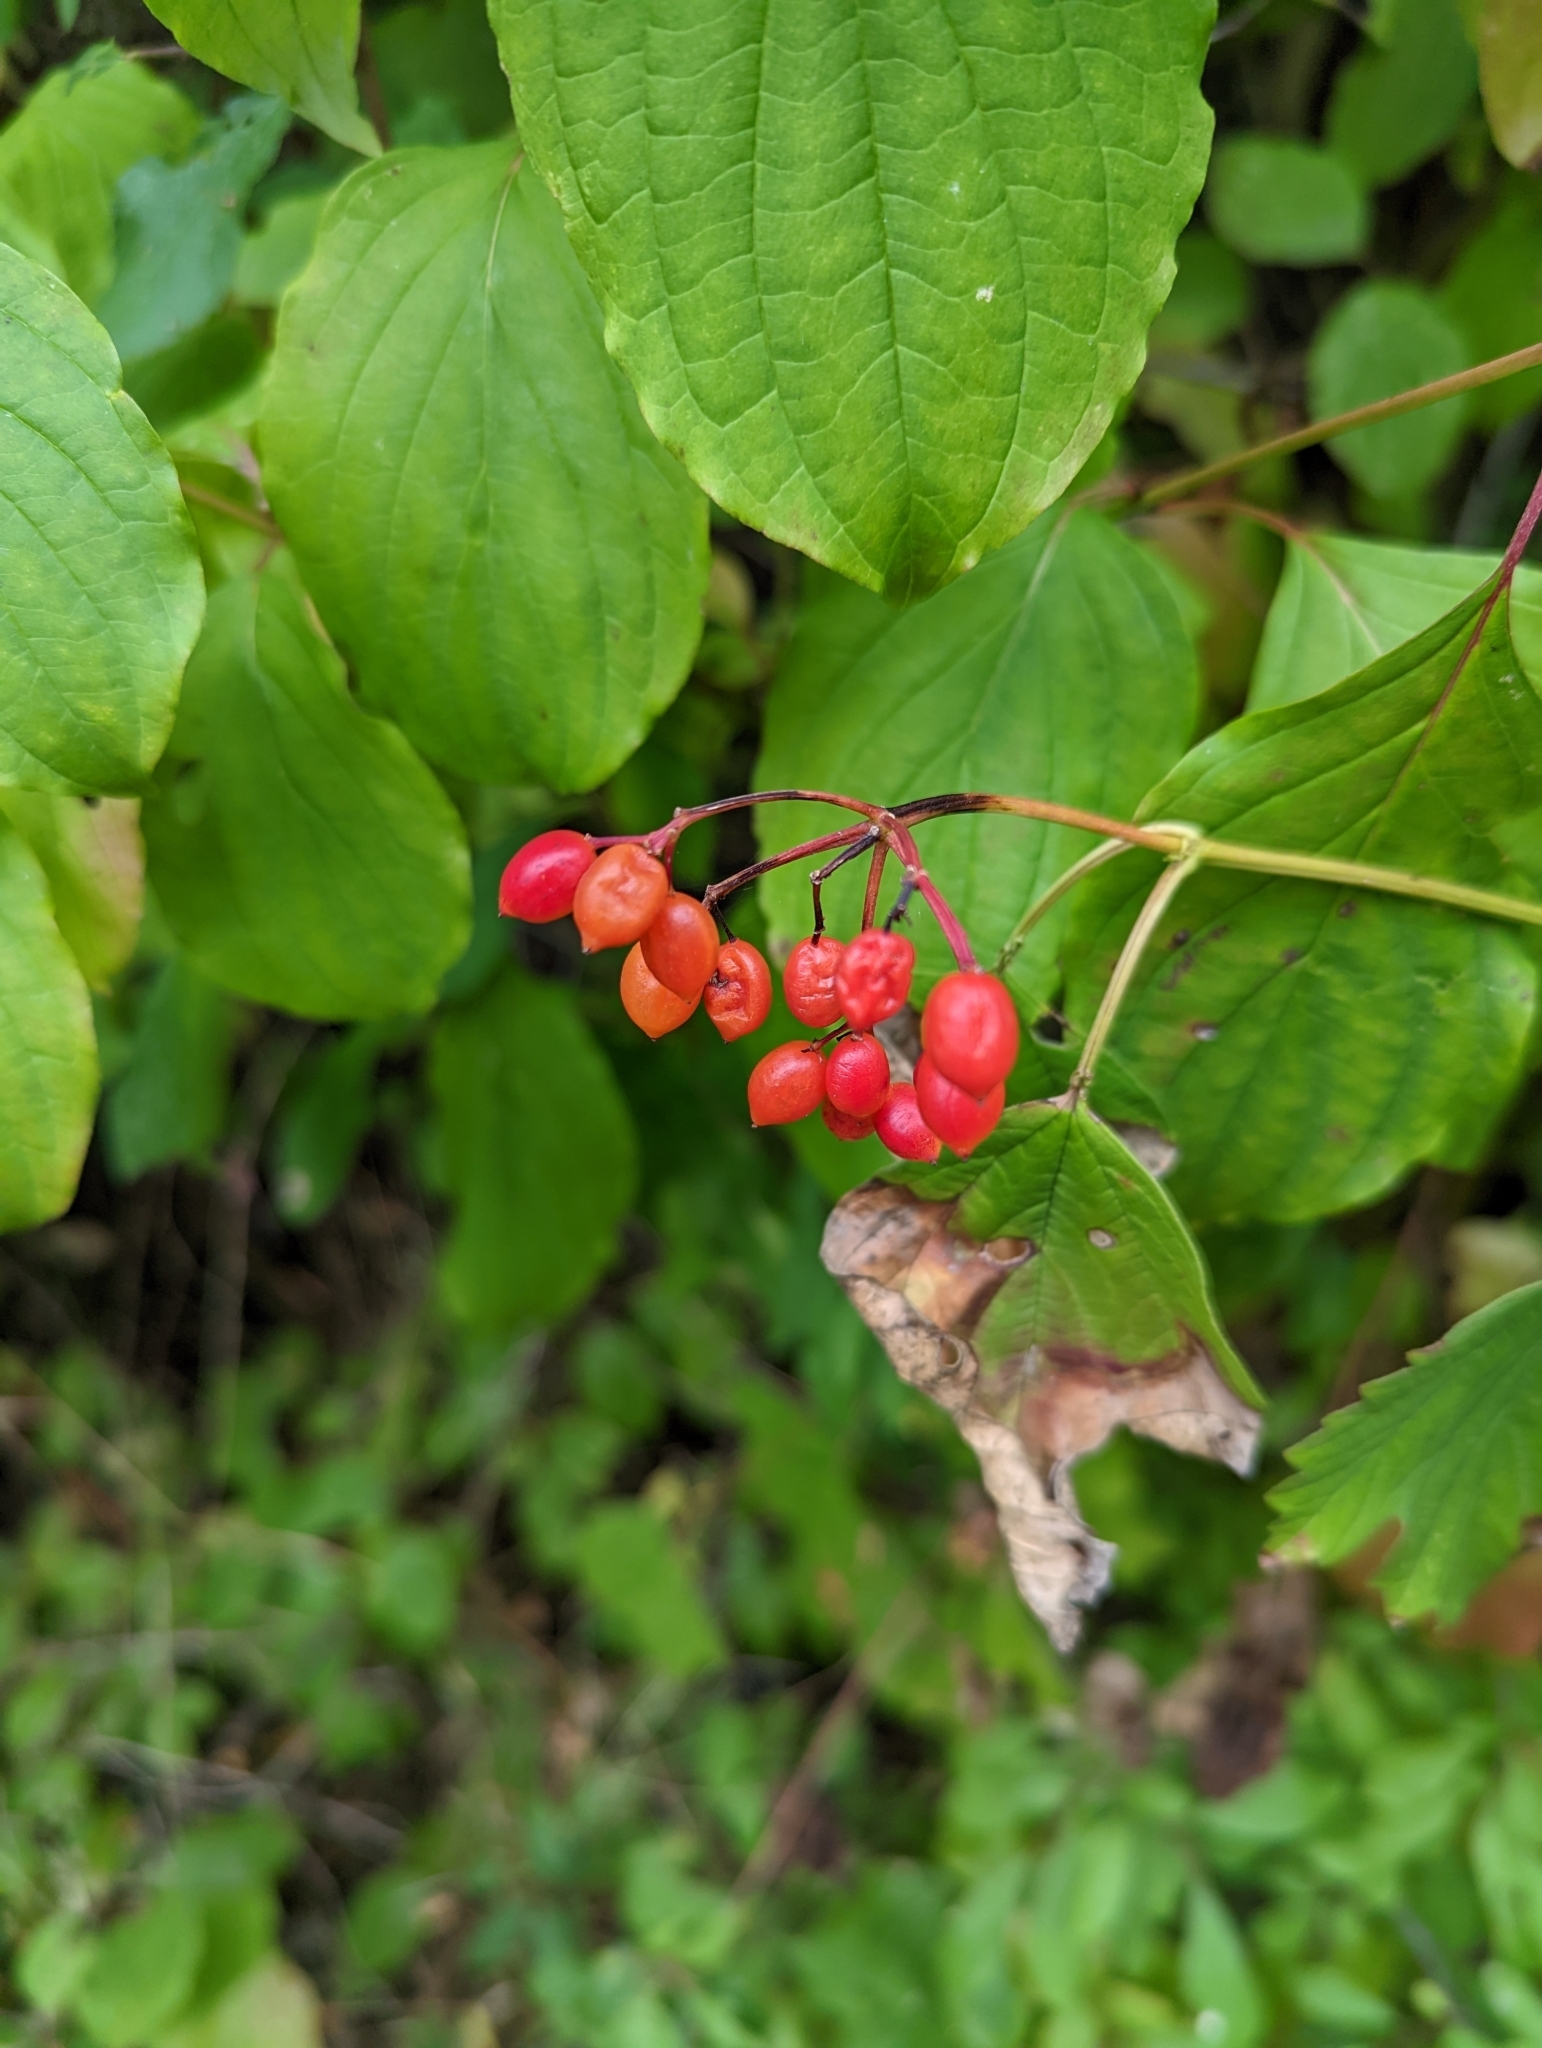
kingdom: Plantae
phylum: Tracheophyta
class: Magnoliopsida
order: Dipsacales
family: Viburnaceae
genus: Viburnum
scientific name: Viburnum opulus
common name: Guelder-rose
